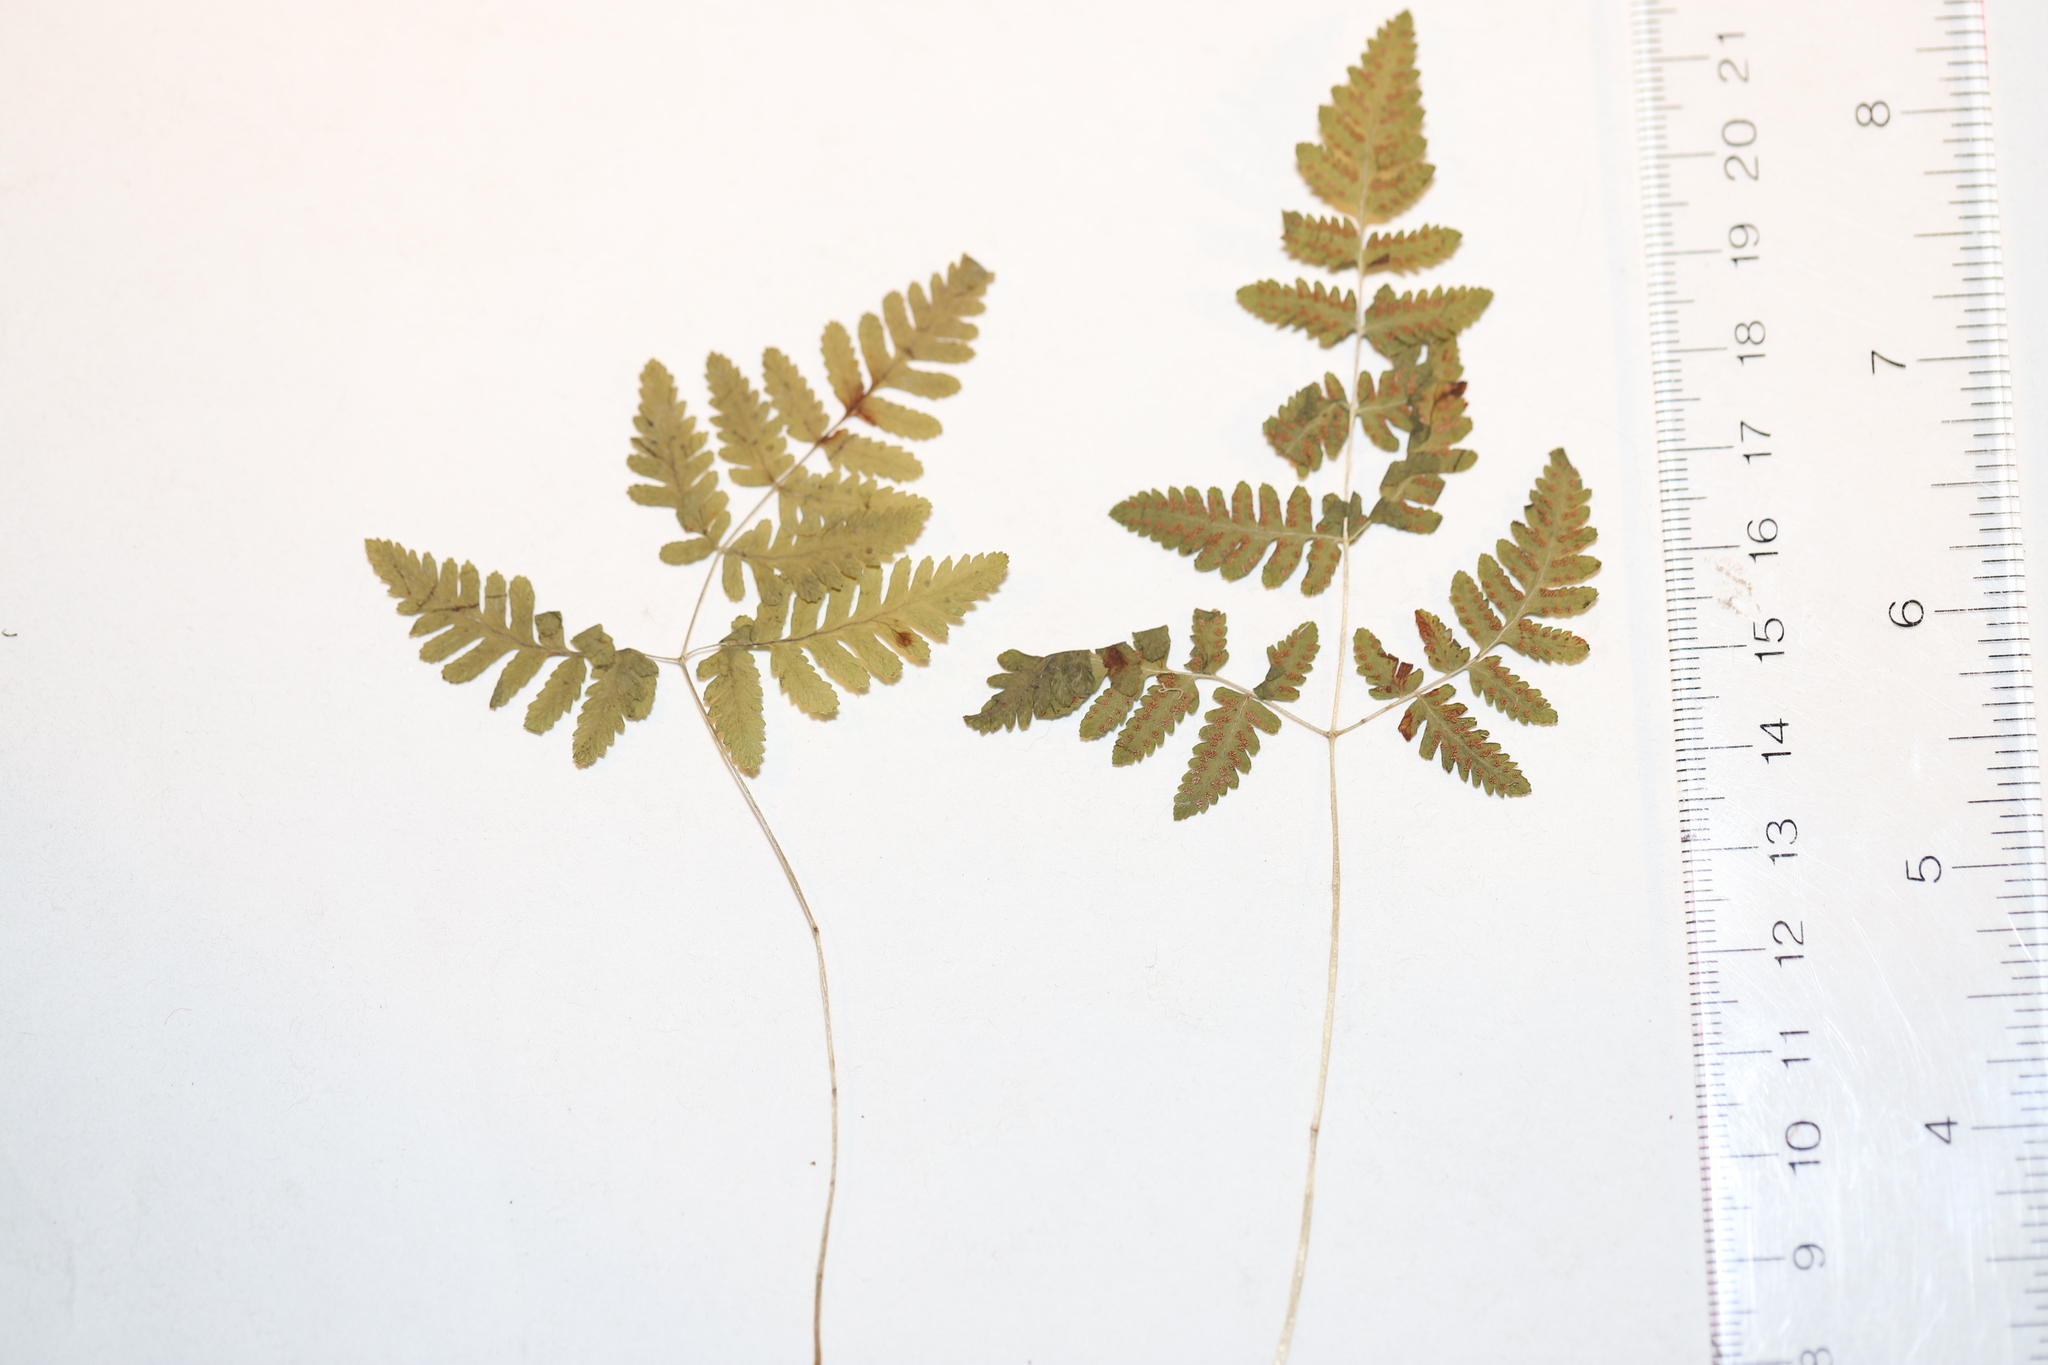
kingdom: Plantae
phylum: Tracheophyta
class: Polypodiopsida
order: Polypodiales
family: Cystopteridaceae
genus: Gymnocarpium
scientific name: Gymnocarpium continentale
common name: Asian oak fern
